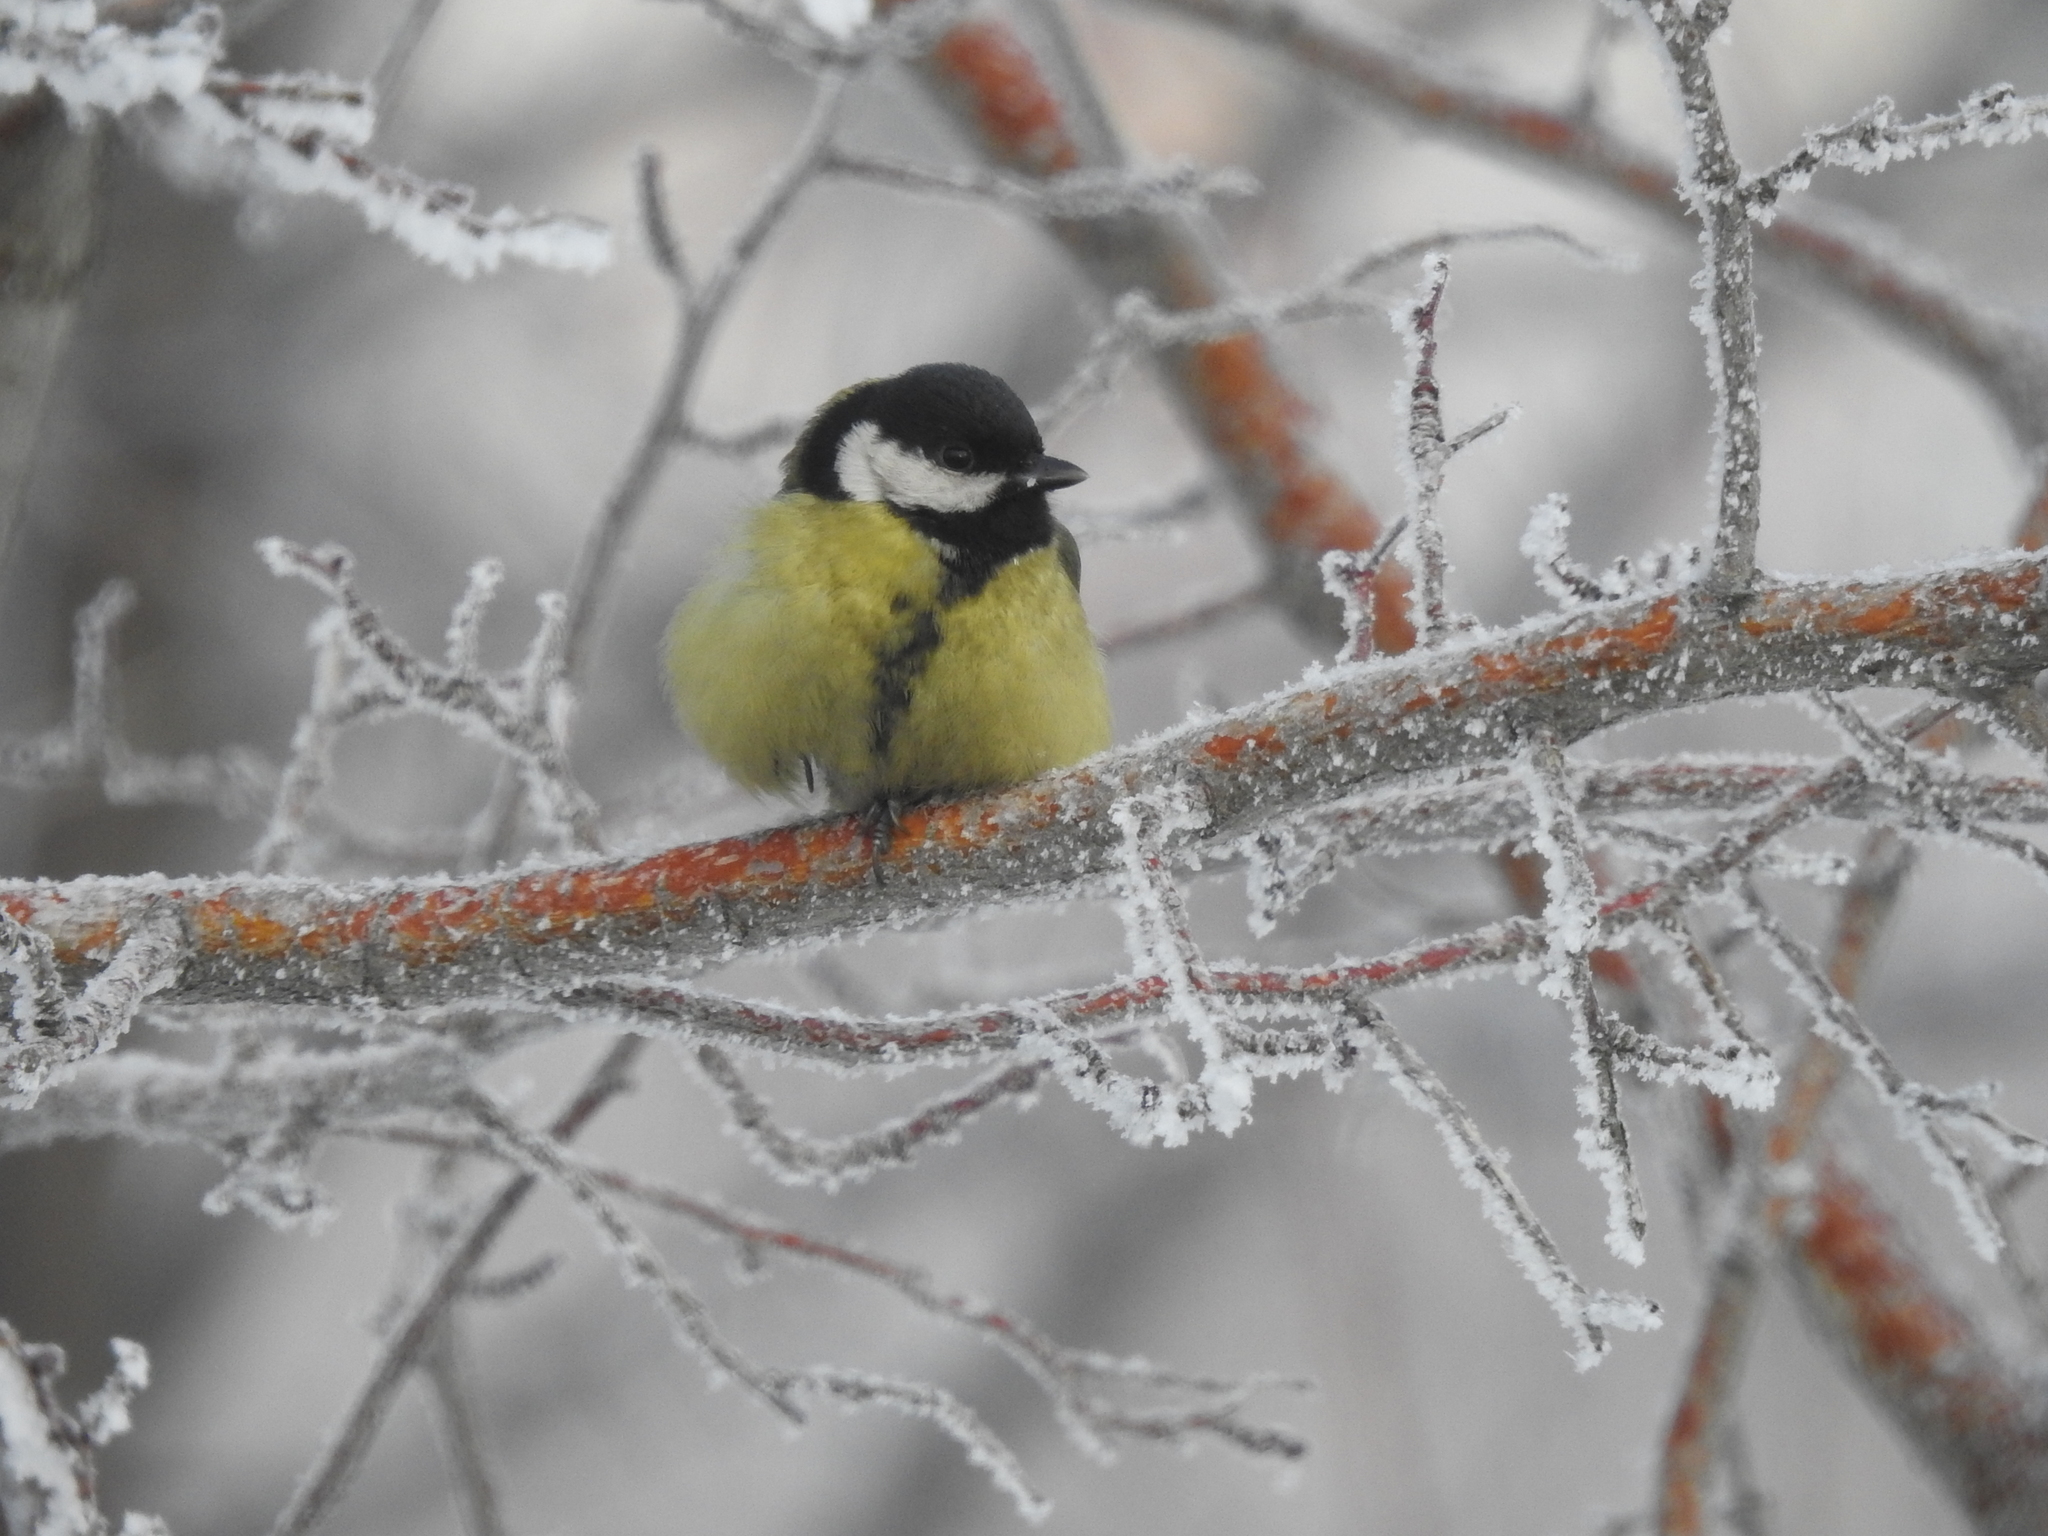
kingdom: Animalia
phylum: Chordata
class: Aves
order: Passeriformes
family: Paridae
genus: Parus
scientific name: Parus major
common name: Great tit
